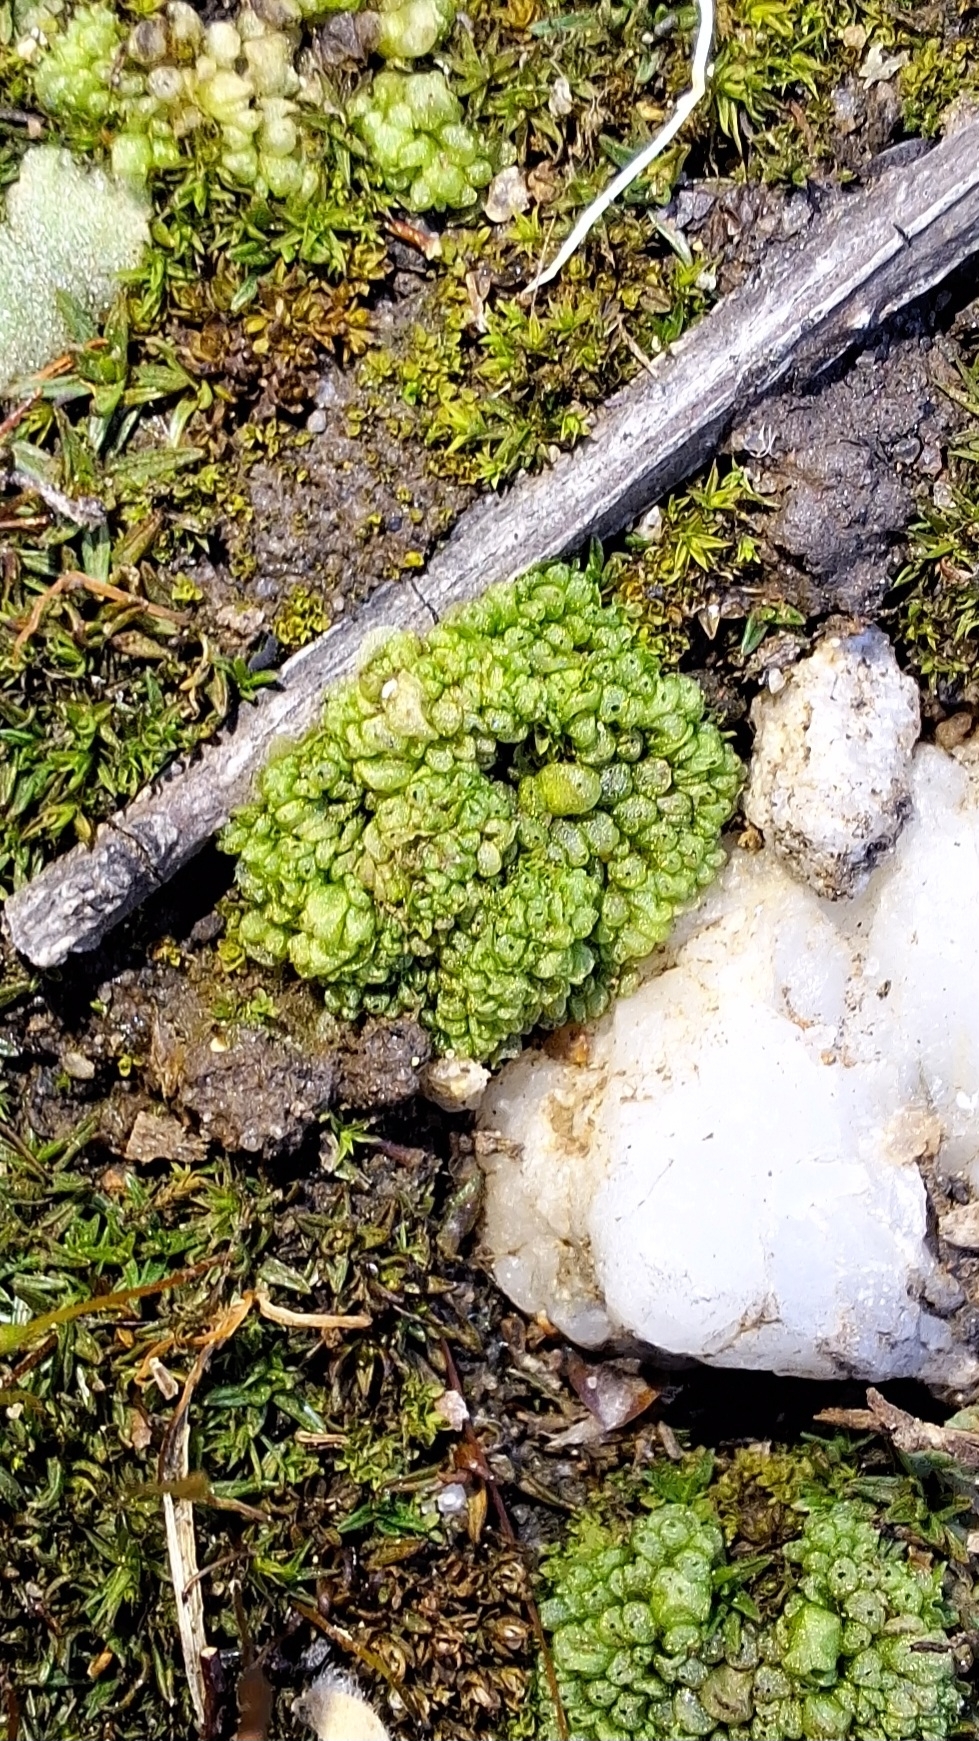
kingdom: Plantae
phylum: Marchantiophyta
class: Marchantiopsida
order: Sphaerocarpales
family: Sphaerocarpaceae
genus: Sphaerocarpos
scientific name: Sphaerocarpos texanus
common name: Texas balloonwort
